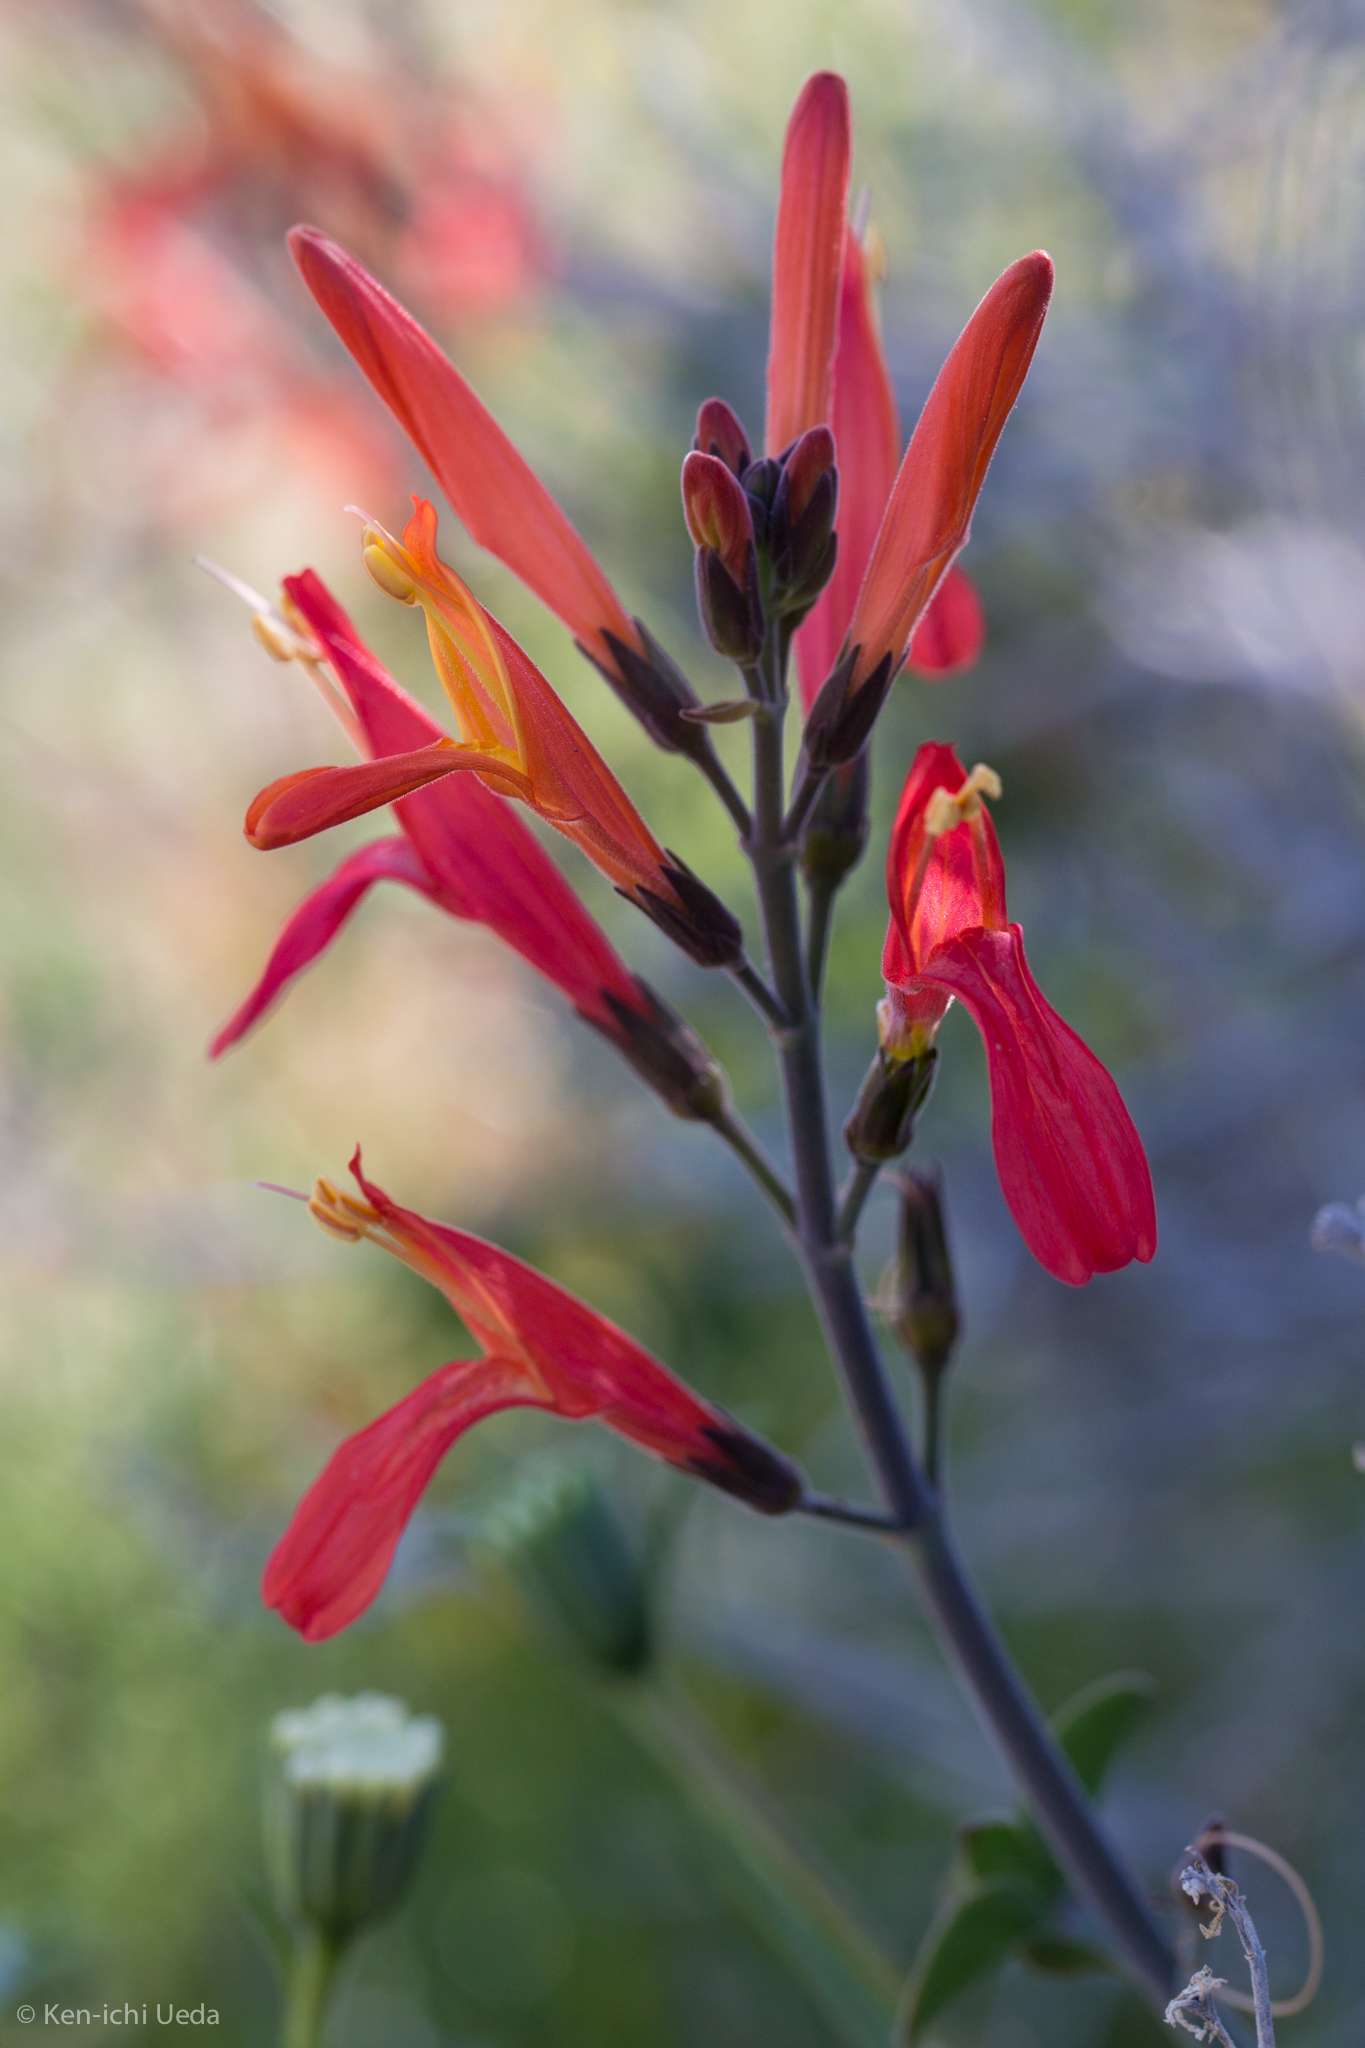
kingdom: Plantae
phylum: Tracheophyta
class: Magnoliopsida
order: Lamiales
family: Acanthaceae
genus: Justicia
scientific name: Justicia californica
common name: Chuparosa-honeysuckle
